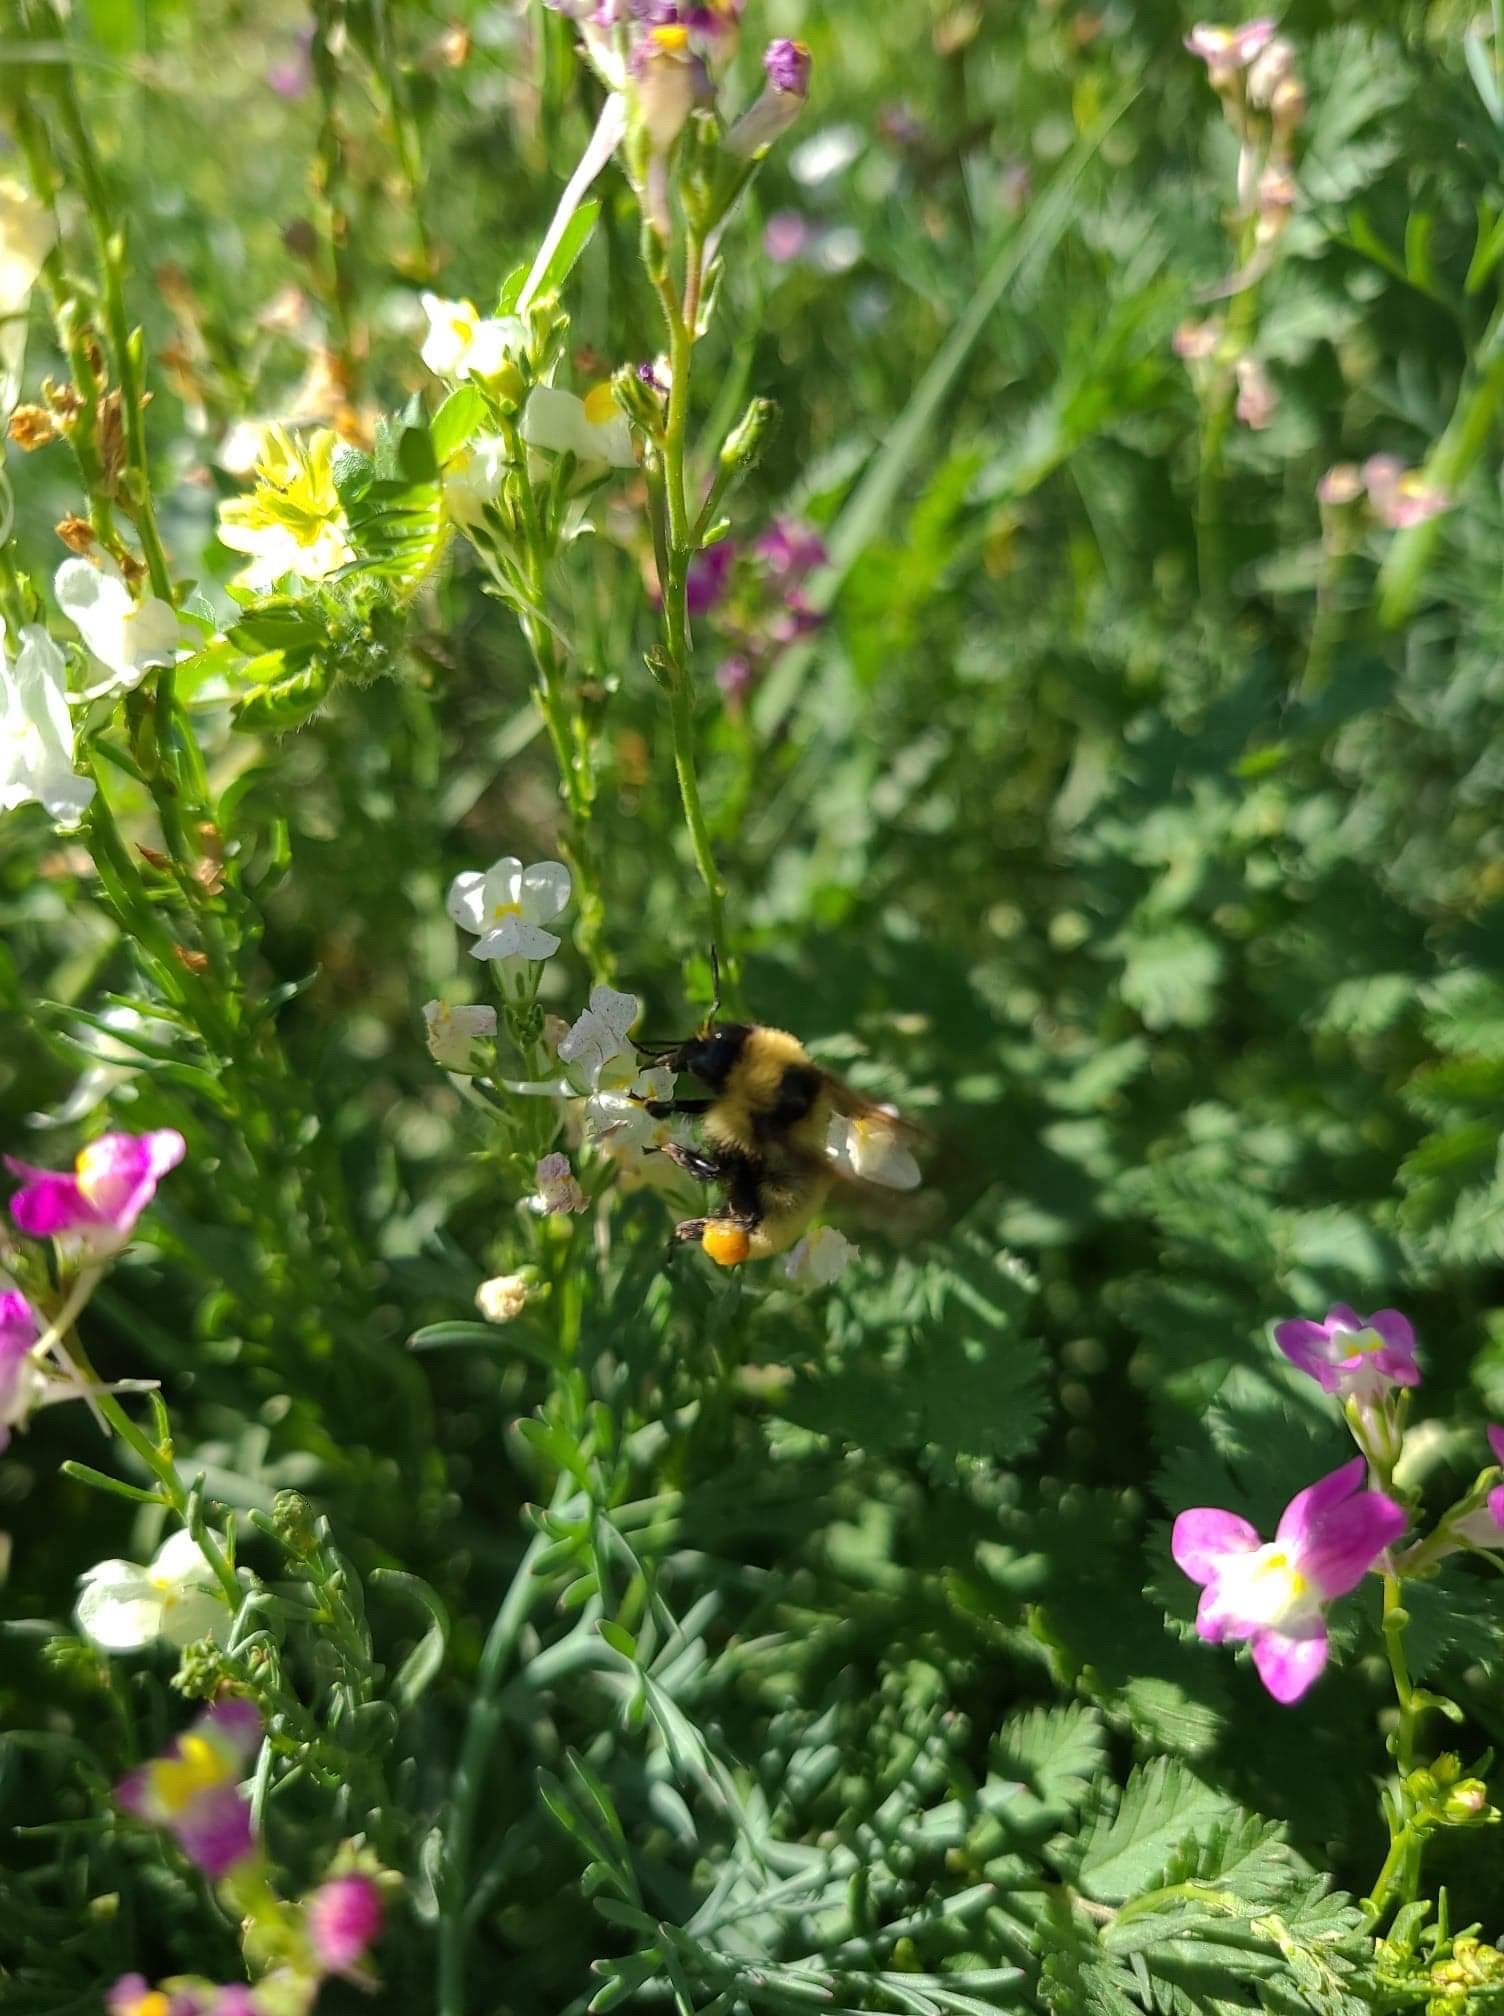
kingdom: Animalia
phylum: Arthropoda
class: Insecta
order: Hymenoptera
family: Apidae
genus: Bombus
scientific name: Bombus fervidus
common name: Yellow bumble bee
